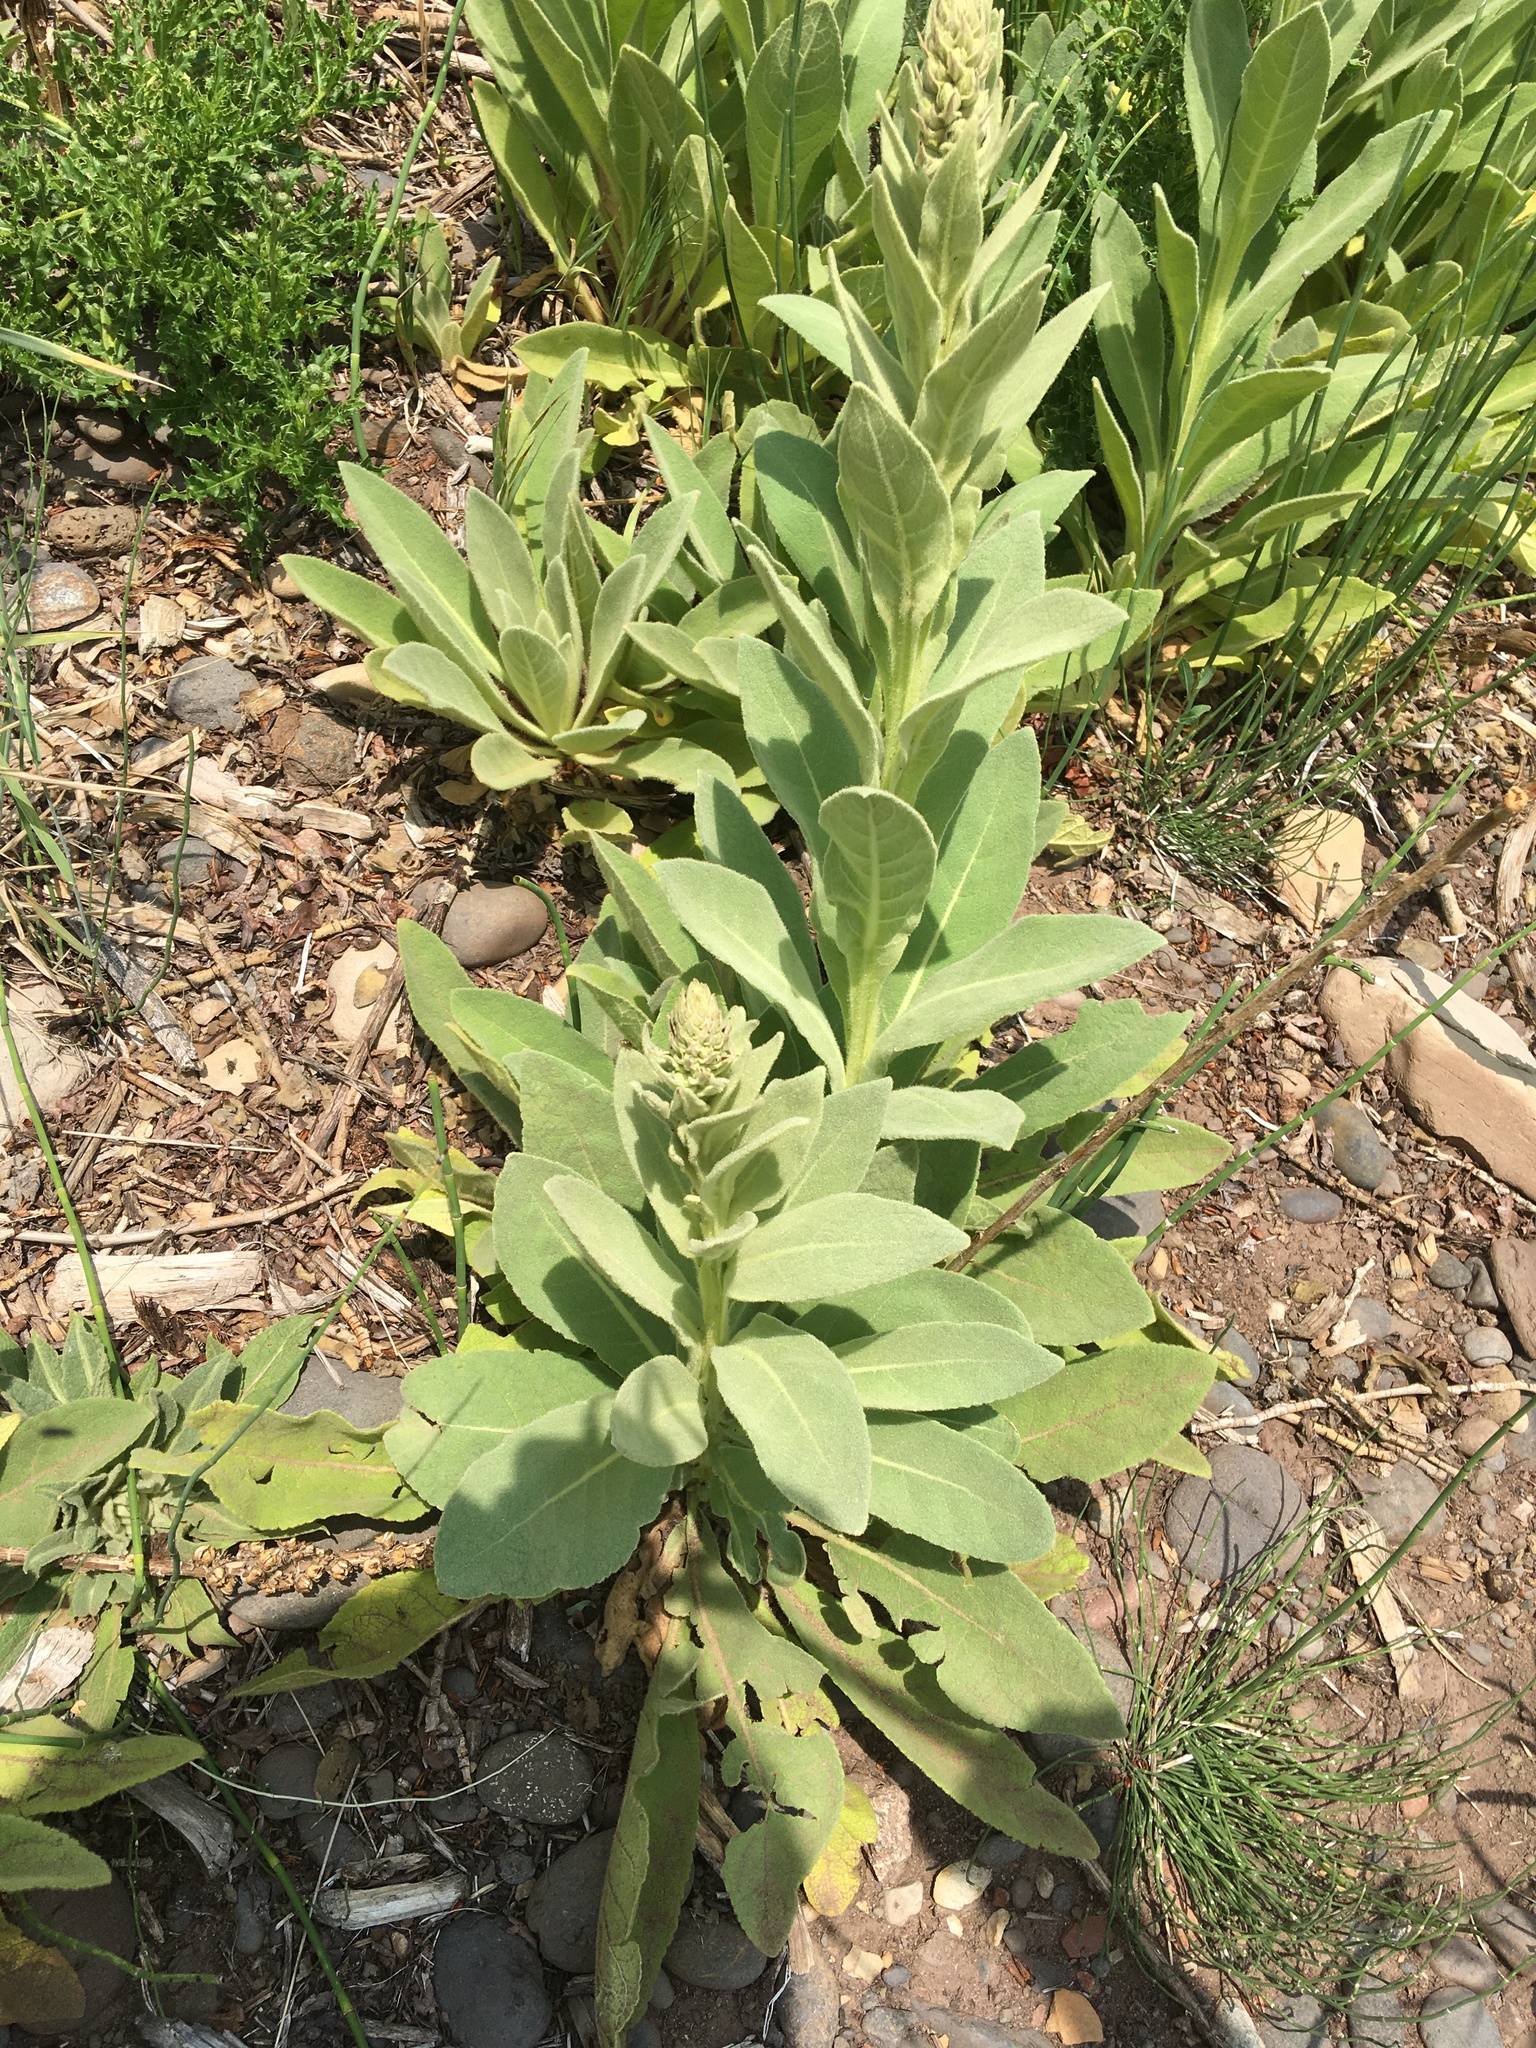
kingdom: Plantae
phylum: Tracheophyta
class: Magnoliopsida
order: Lamiales
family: Scrophulariaceae
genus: Verbascum
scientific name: Verbascum thapsus
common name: Common mullein
